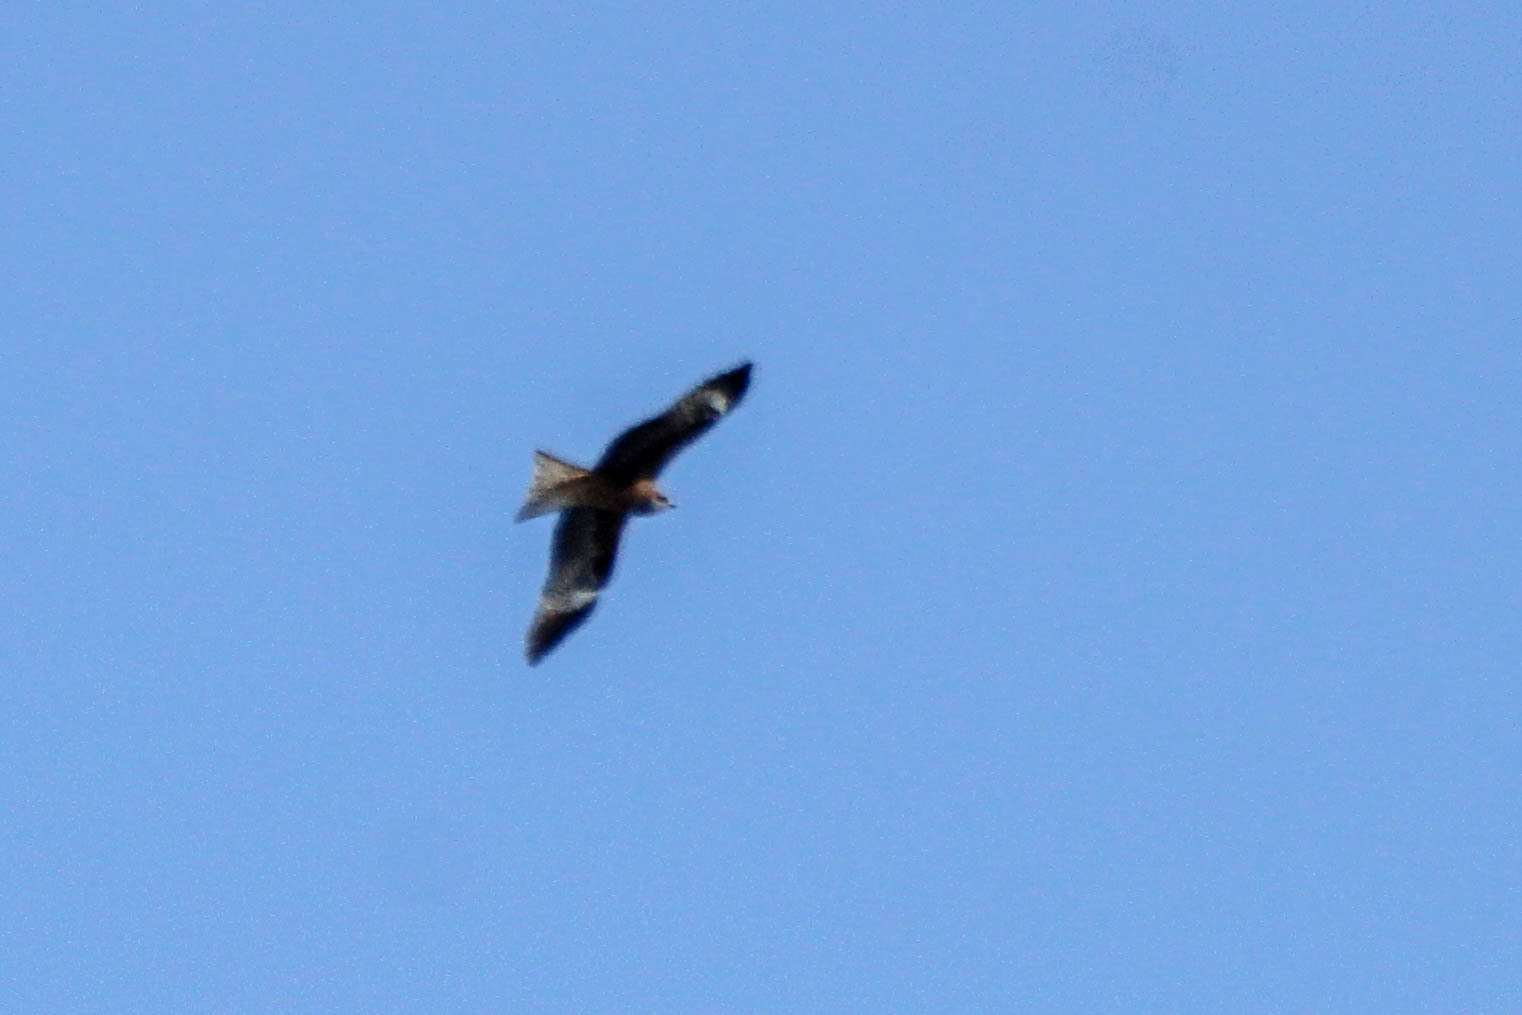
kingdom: Animalia
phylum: Chordata
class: Aves
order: Accipitriformes
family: Accipitridae
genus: Milvus
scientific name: Milvus migrans
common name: Black kite
